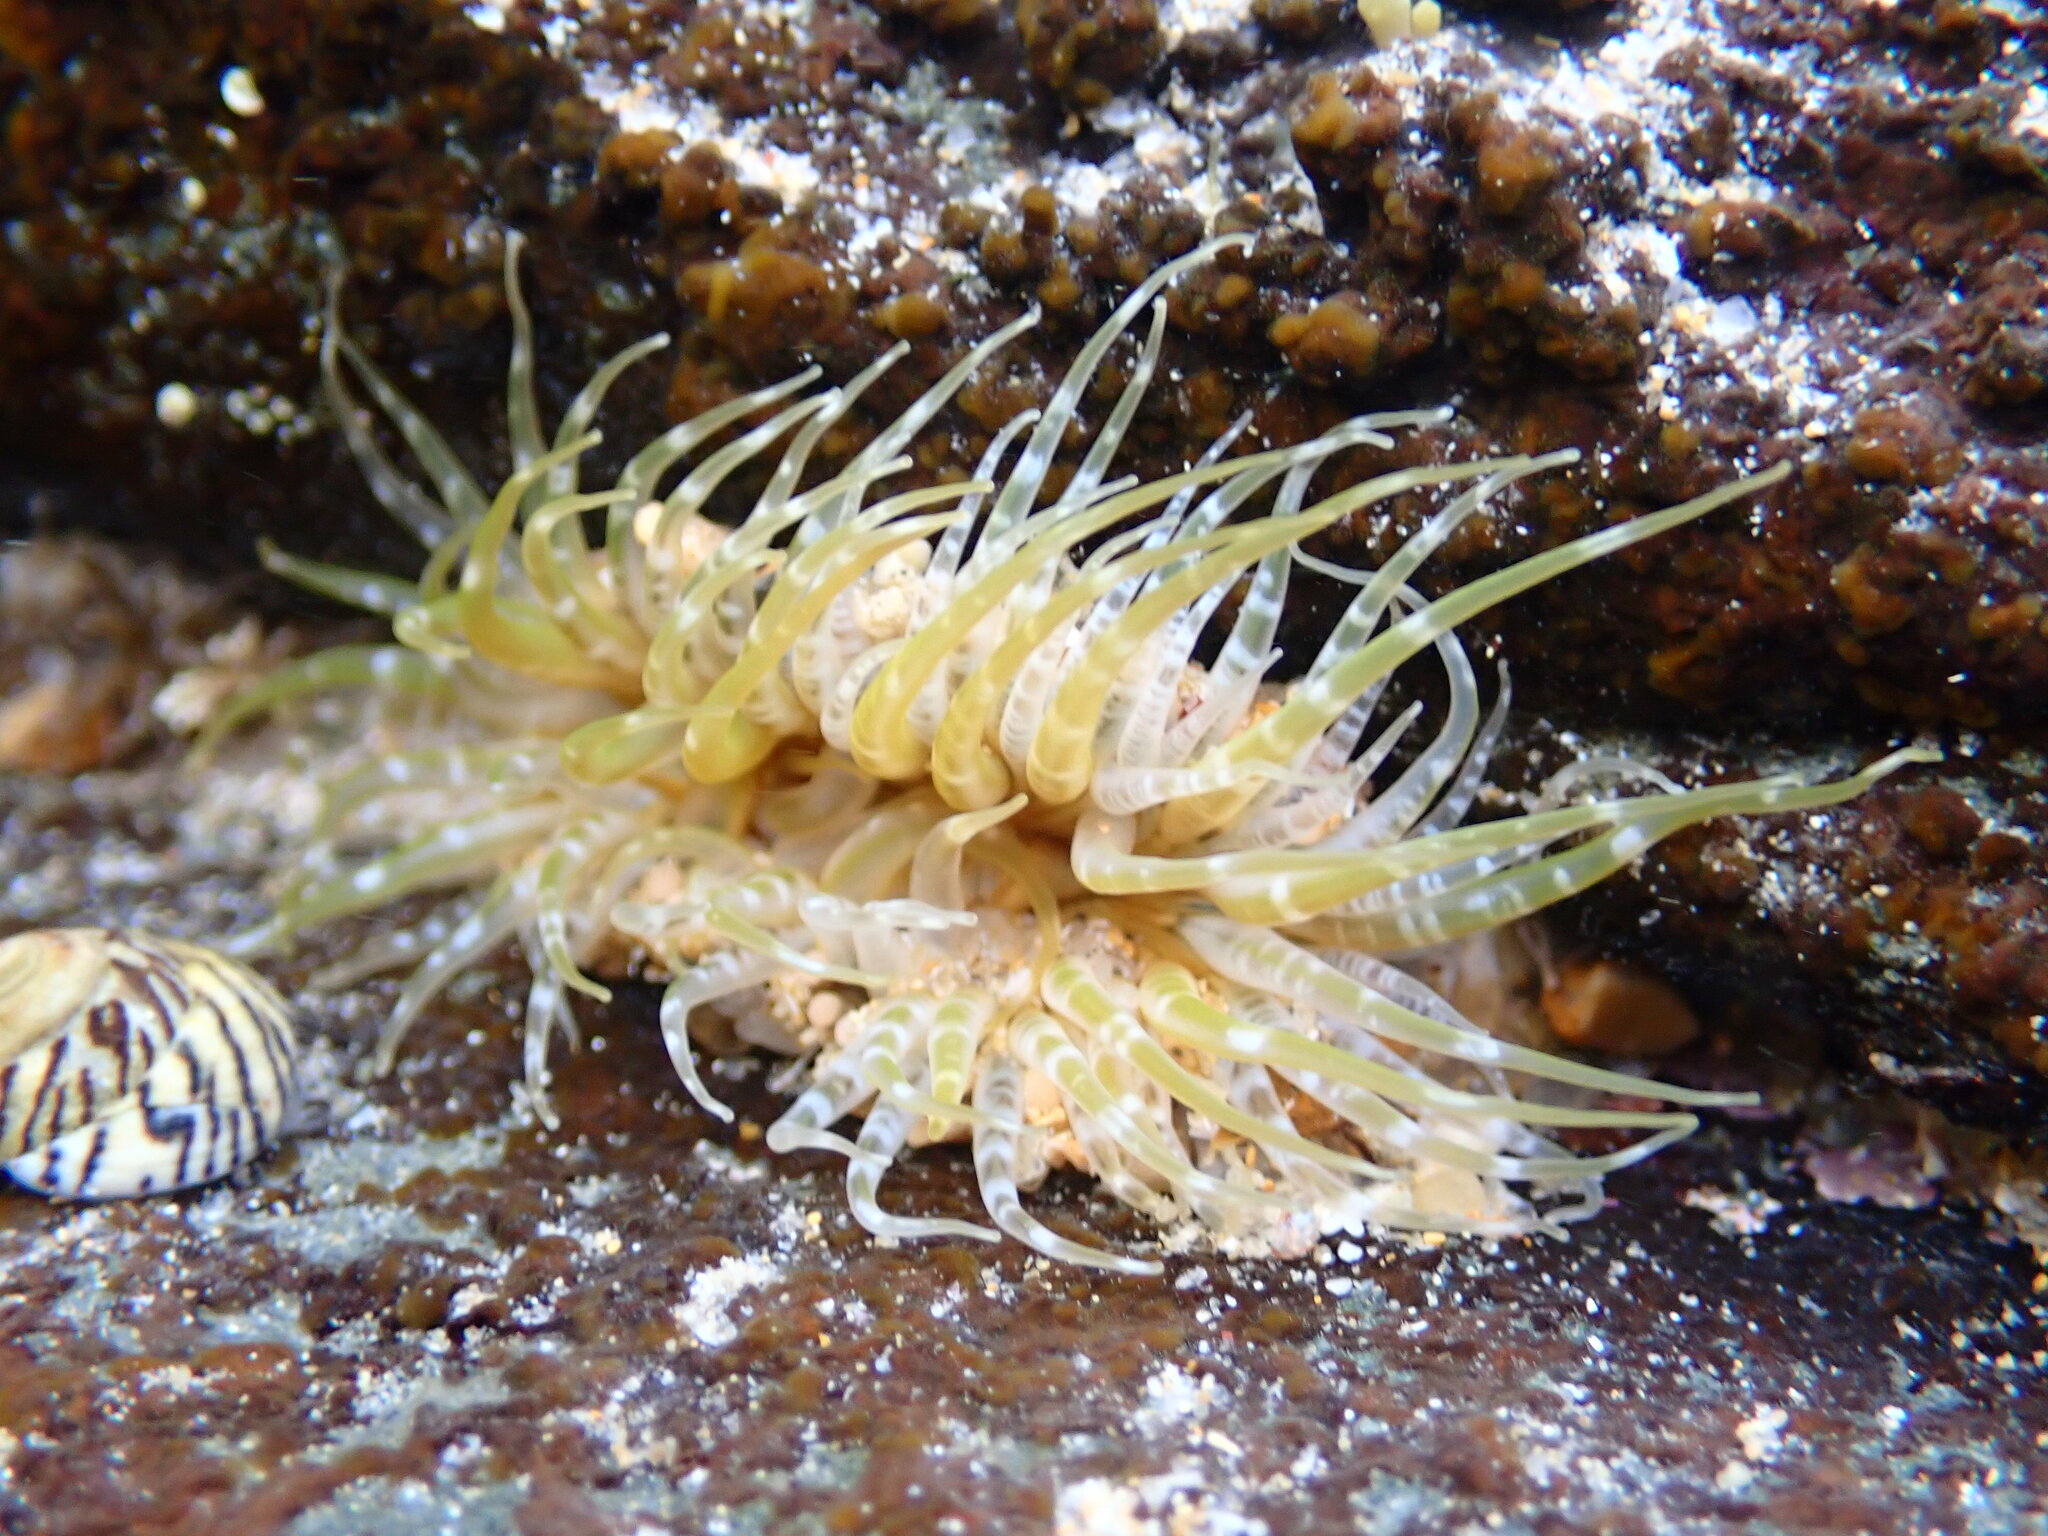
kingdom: Animalia
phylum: Cnidaria
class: Anthozoa
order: Actiniaria
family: Actiniidae
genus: Oulactis
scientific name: Oulactis muscosa
